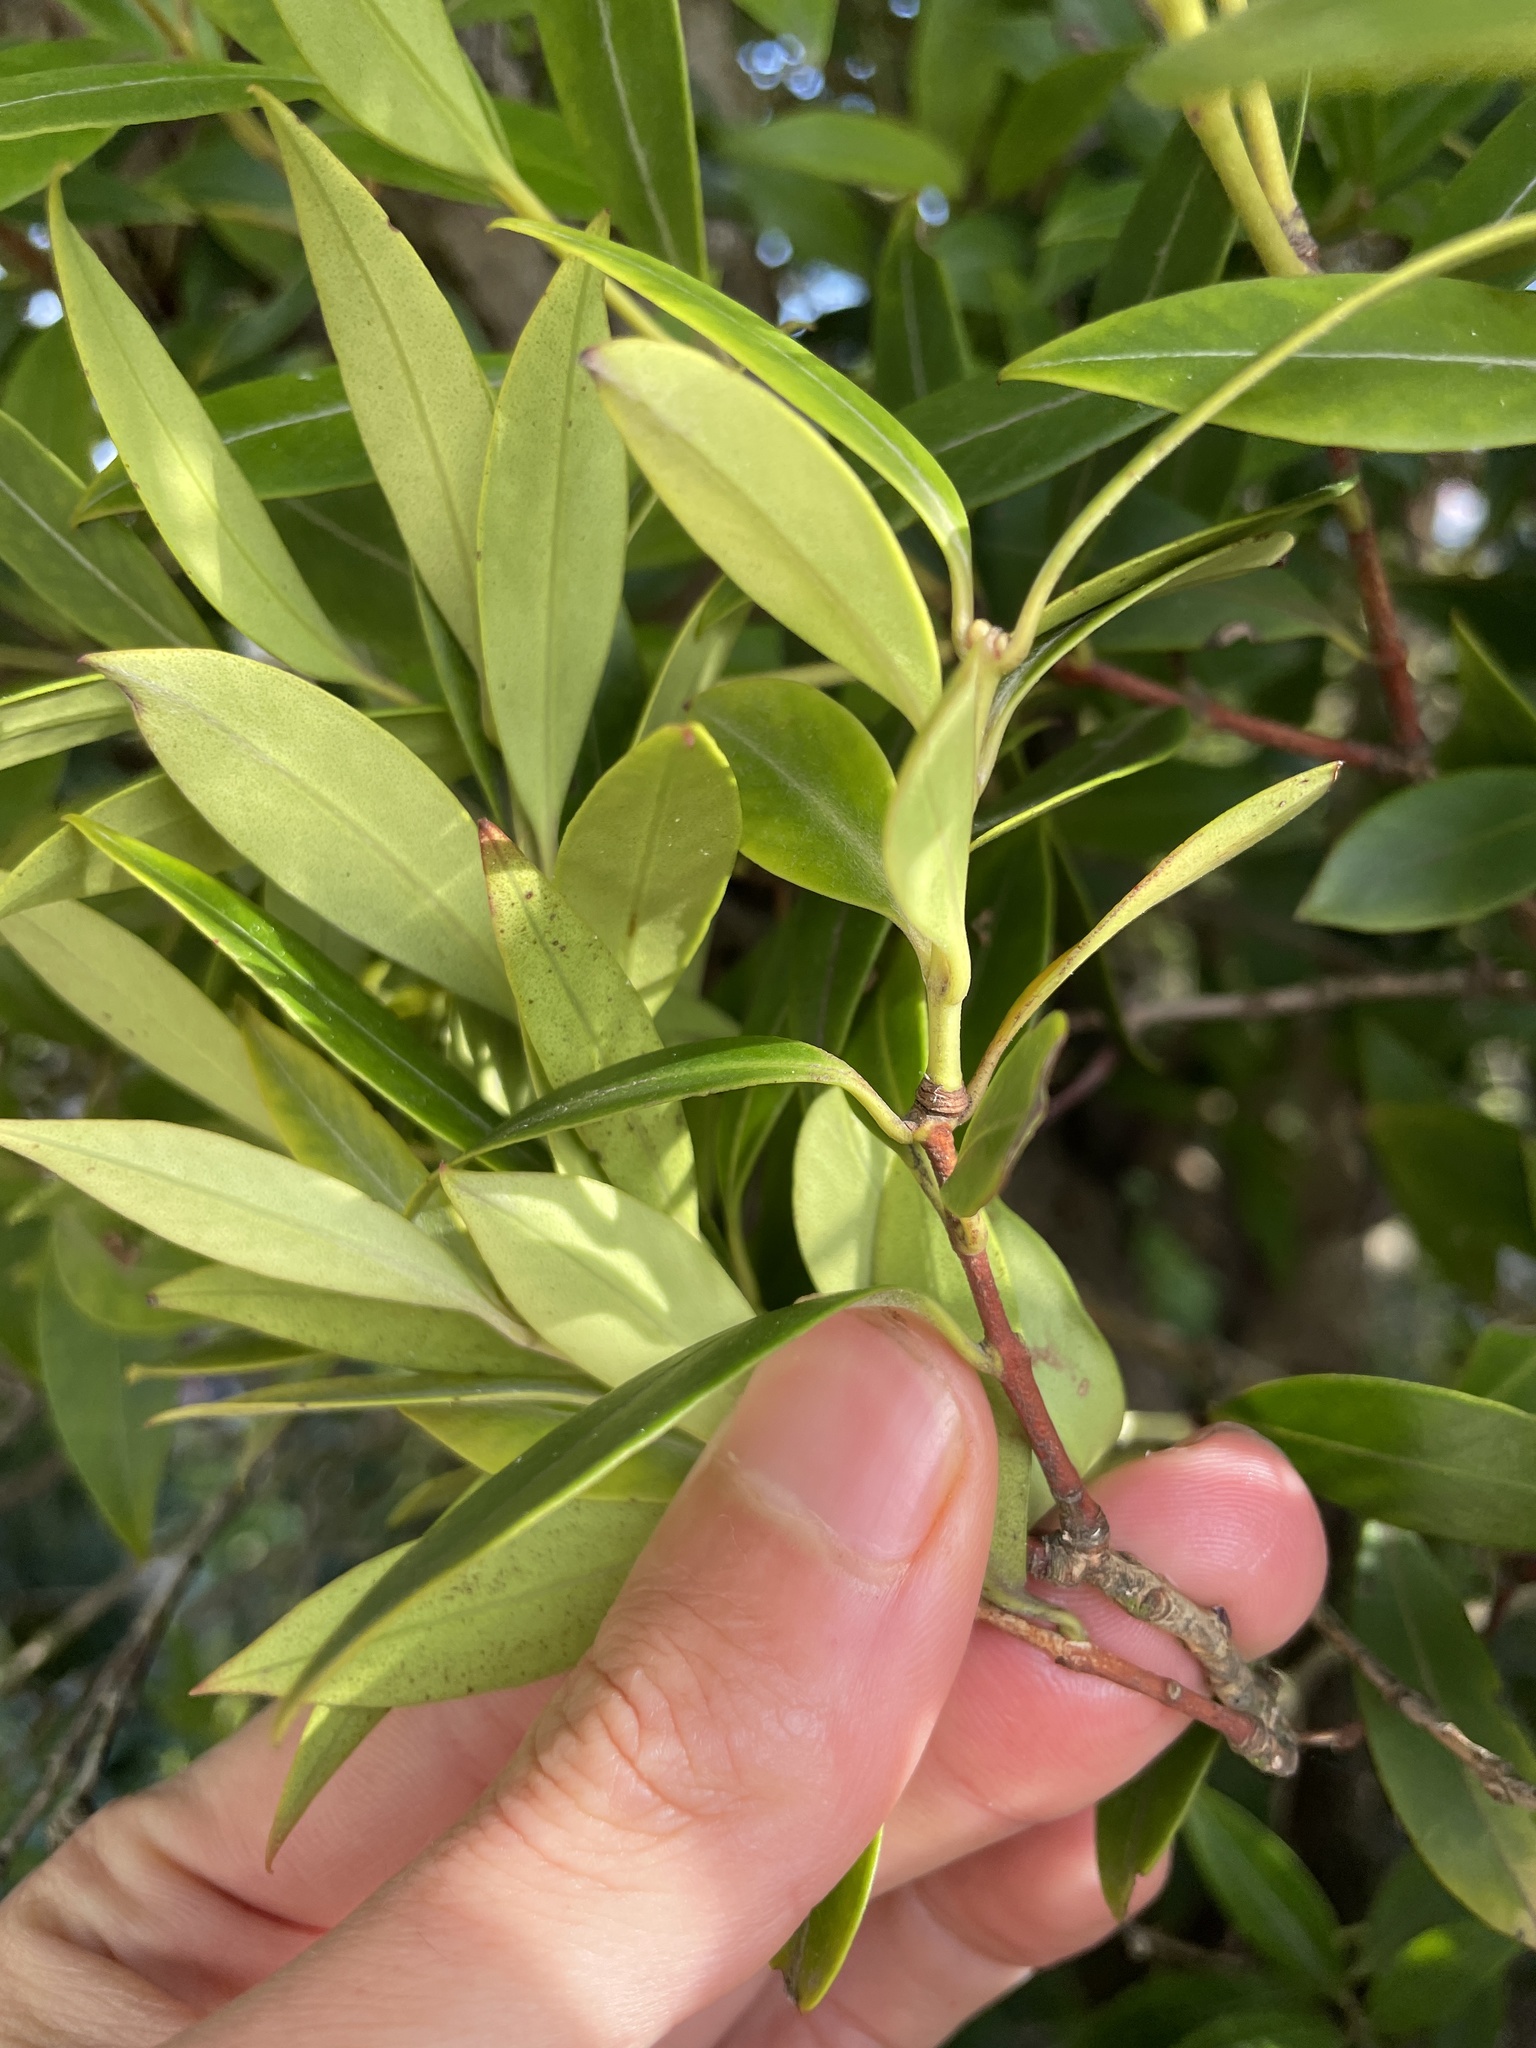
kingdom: Plantae
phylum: Tracheophyta
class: Magnoliopsida
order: Myrtales
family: Myrtaceae
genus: Metrosideros
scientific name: Metrosideros umbellata
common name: Southern rata
